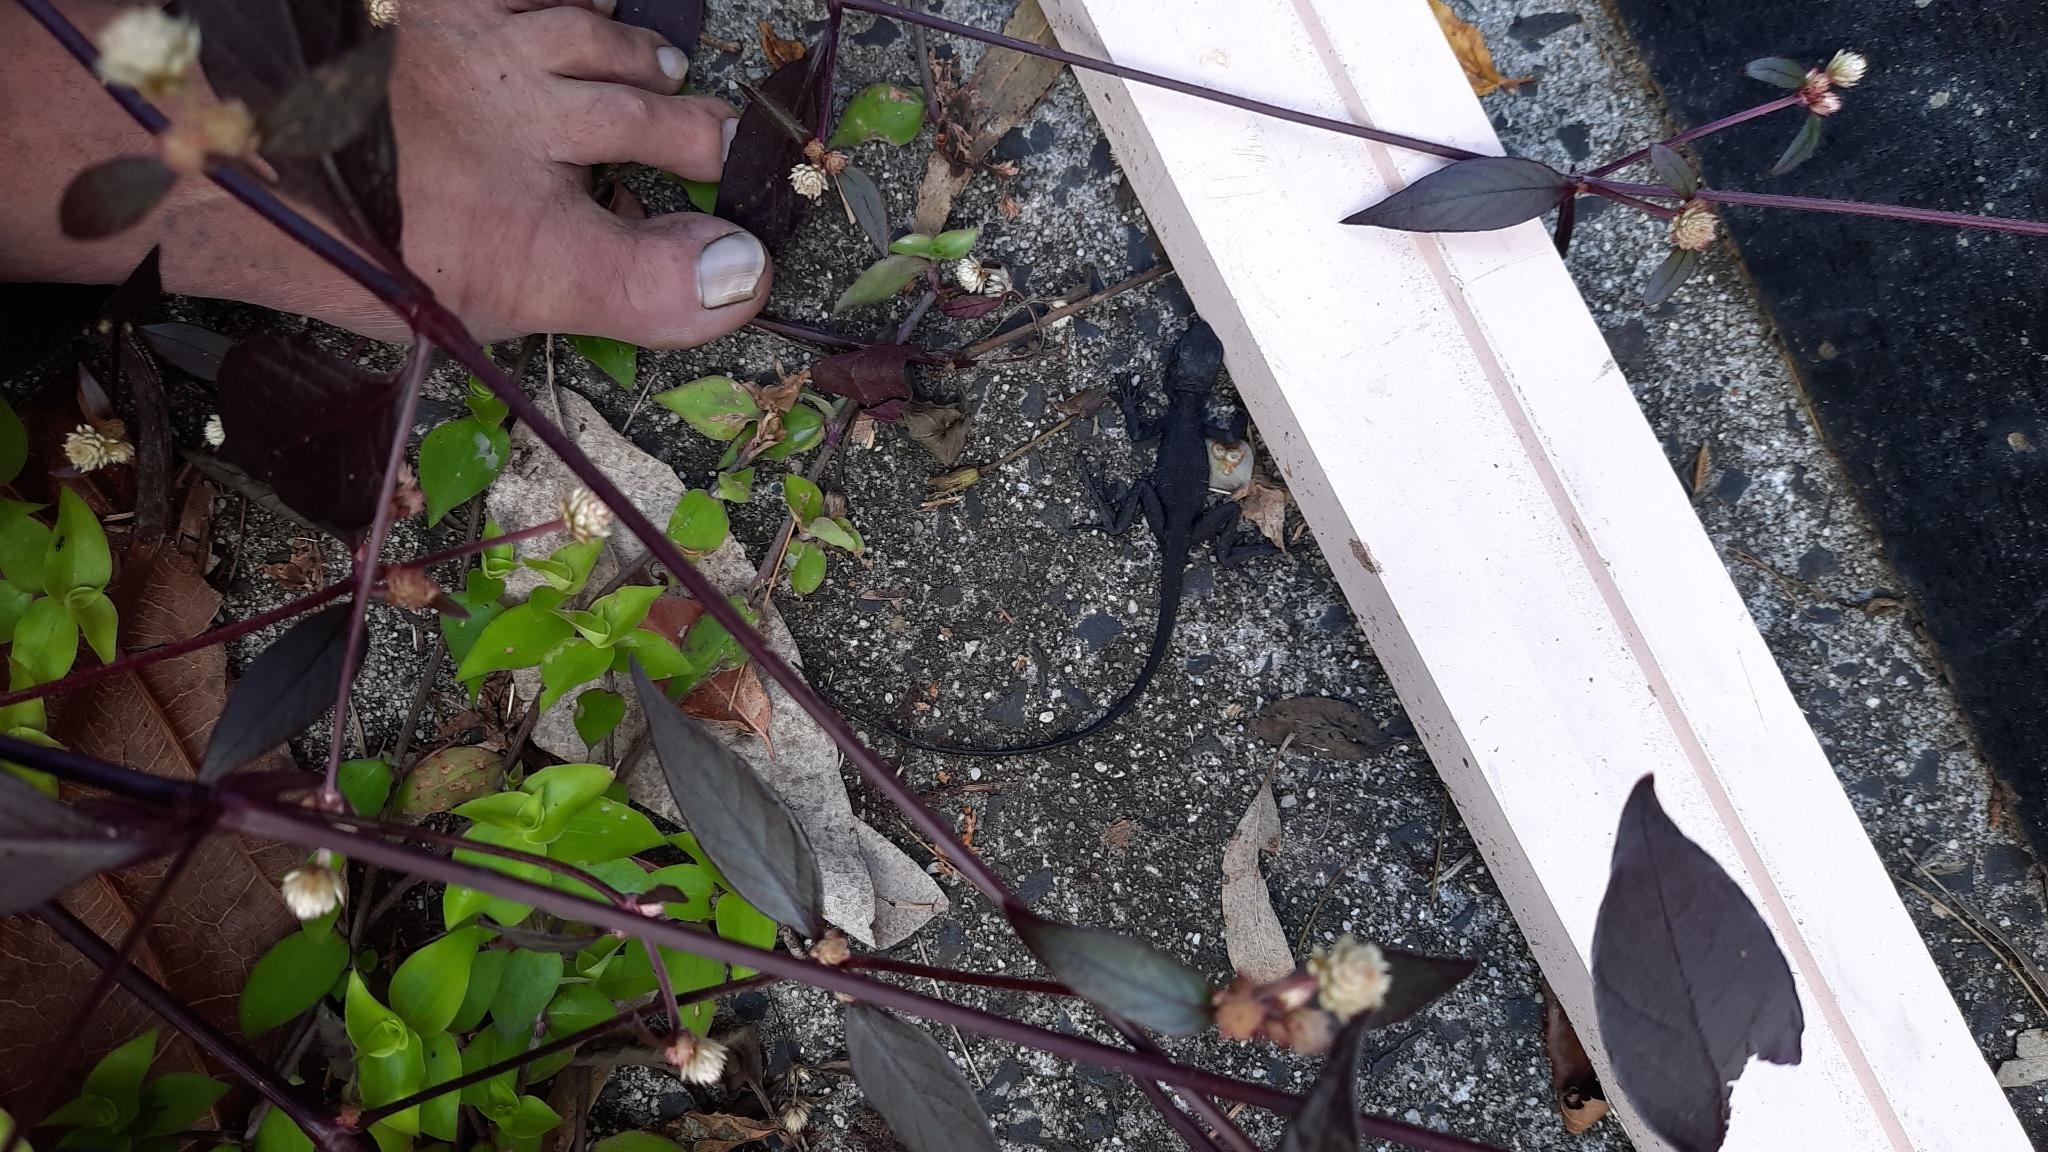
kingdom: Animalia
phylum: Chordata
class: Squamata
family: Agamidae
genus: Intellagama
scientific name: Intellagama lesueurii
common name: Eastern water dragon
